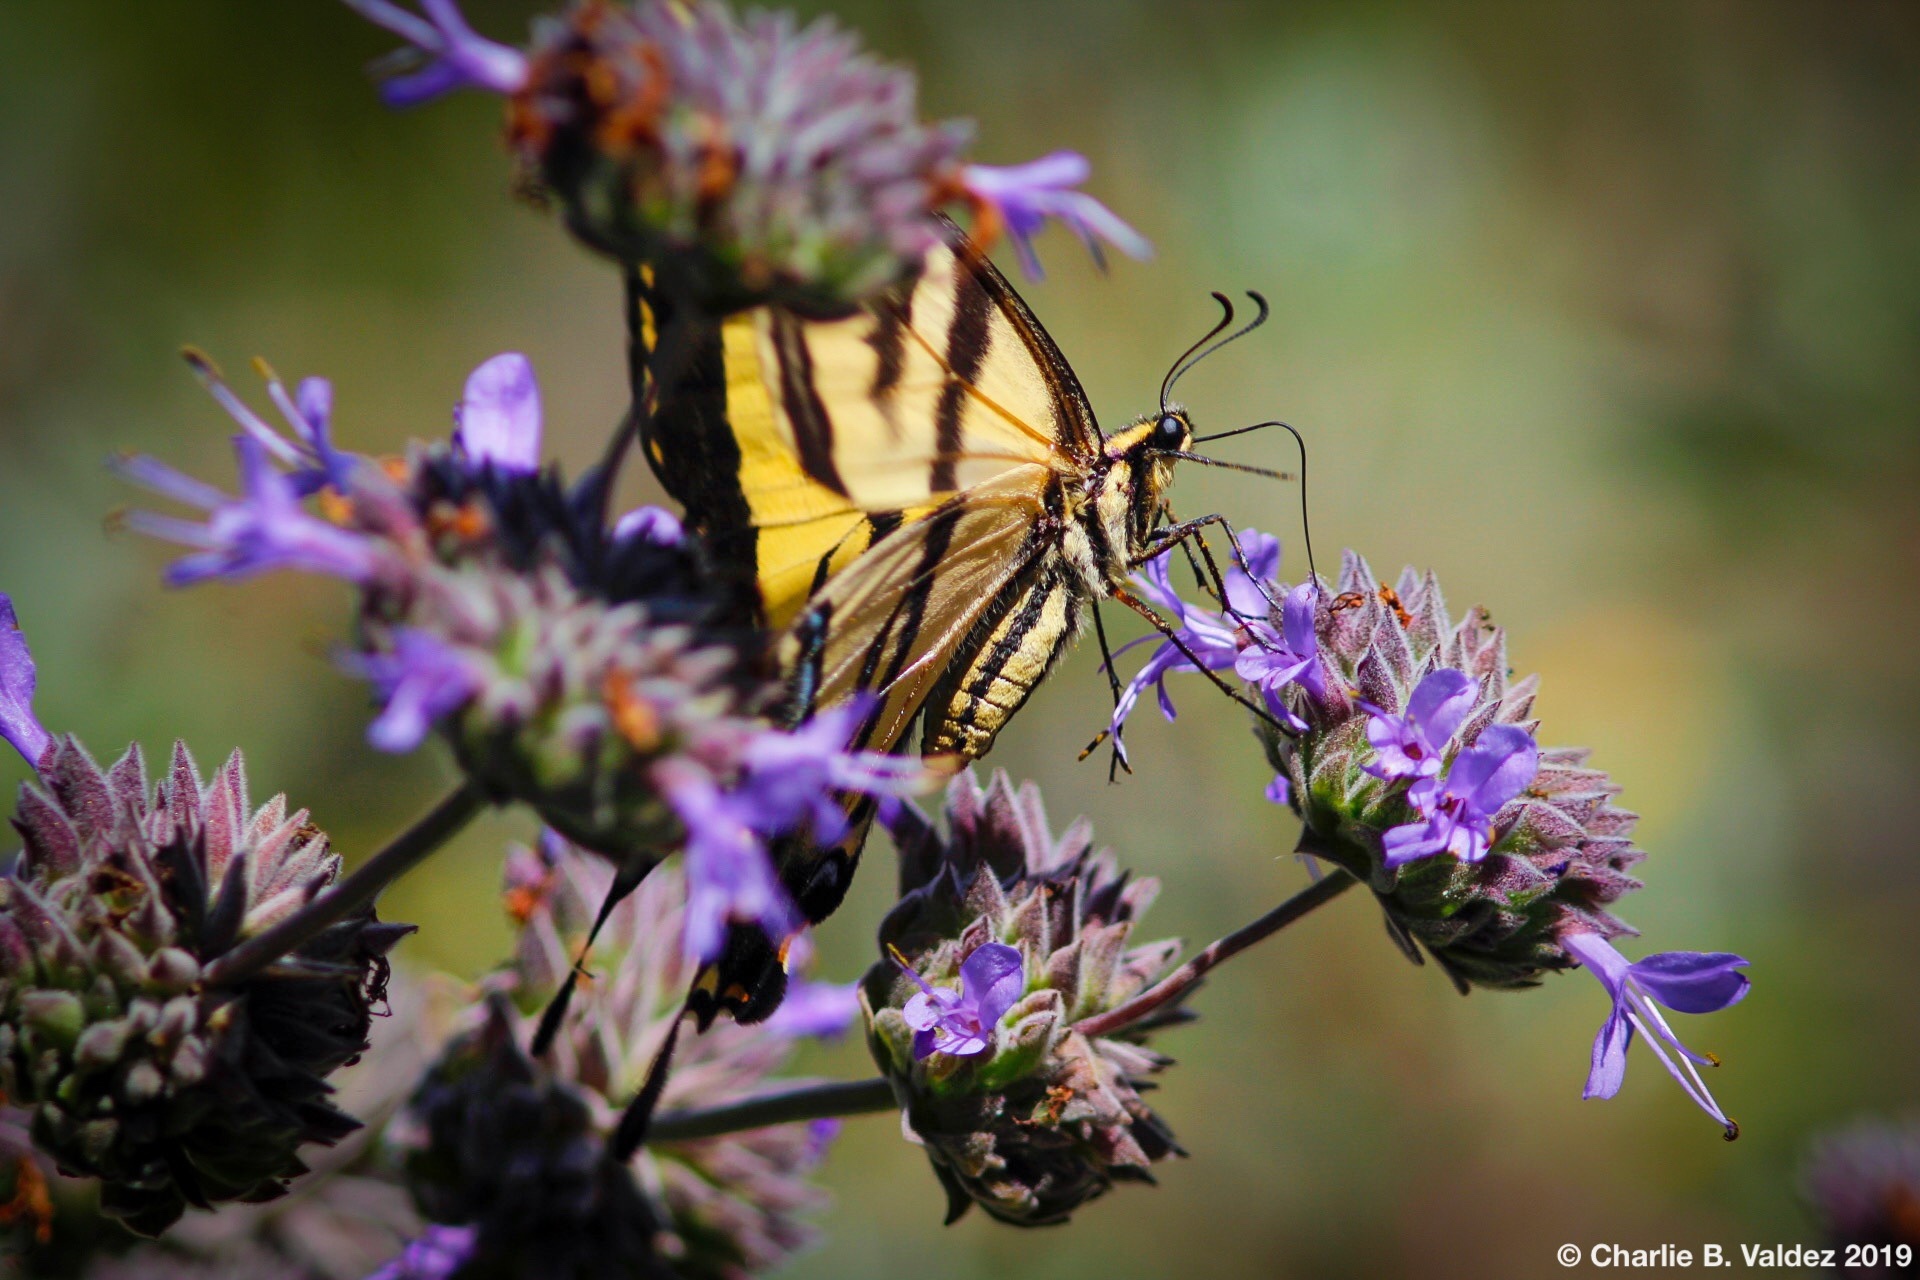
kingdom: Animalia
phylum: Arthropoda
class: Insecta
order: Lepidoptera
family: Papilionidae
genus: Papilio
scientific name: Papilio rutulus
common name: Western tiger swallowtail
